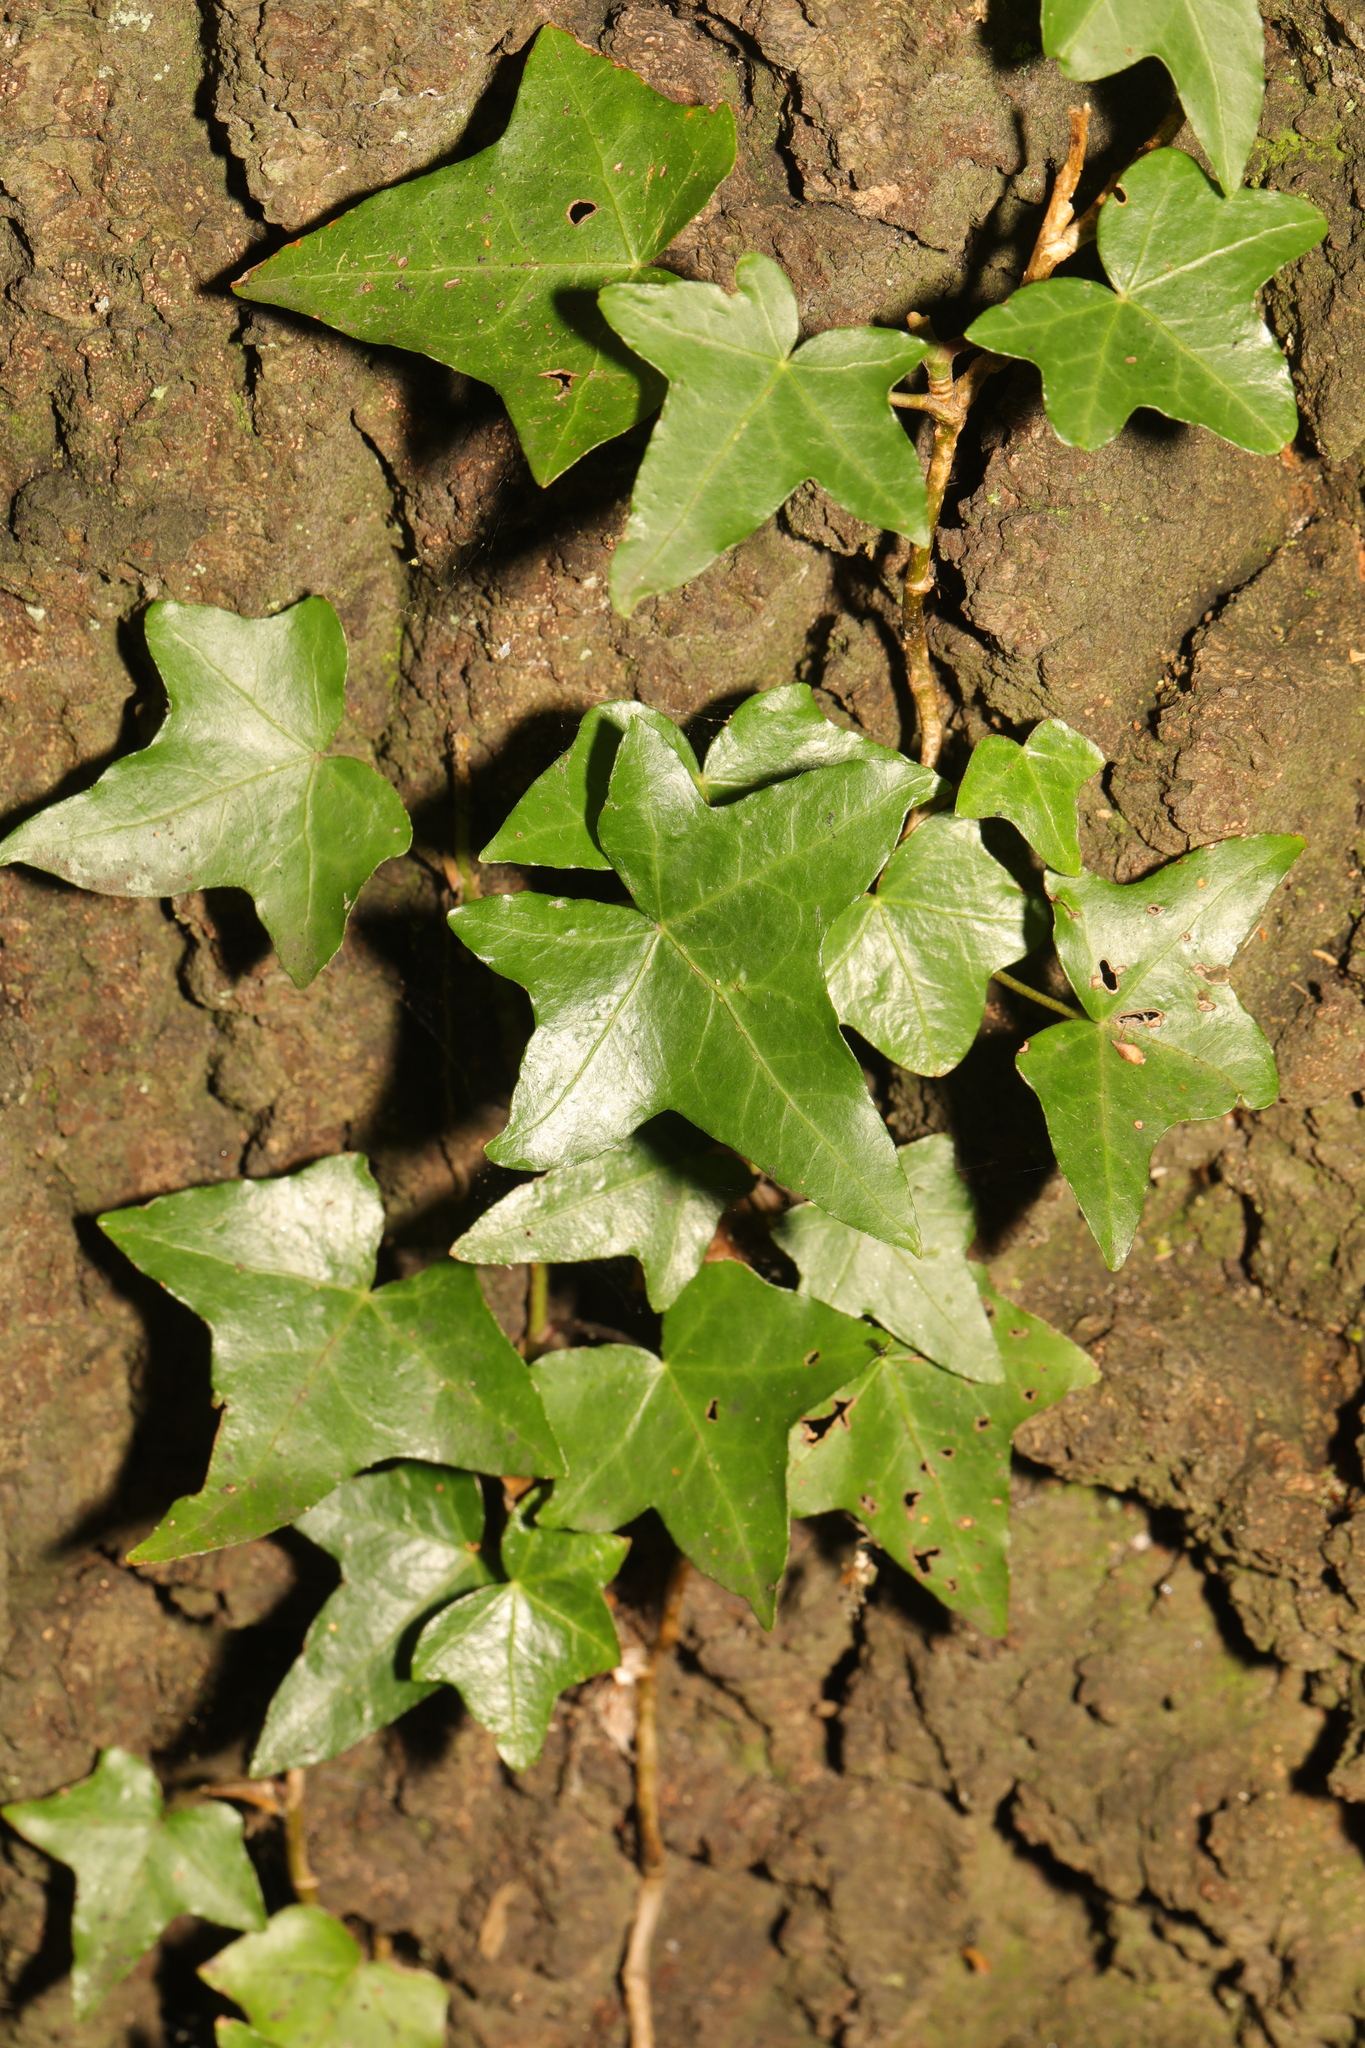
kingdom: Plantae
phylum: Tracheophyta
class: Magnoliopsida
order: Apiales
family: Araliaceae
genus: Hedera
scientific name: Hedera helix
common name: Ivy
